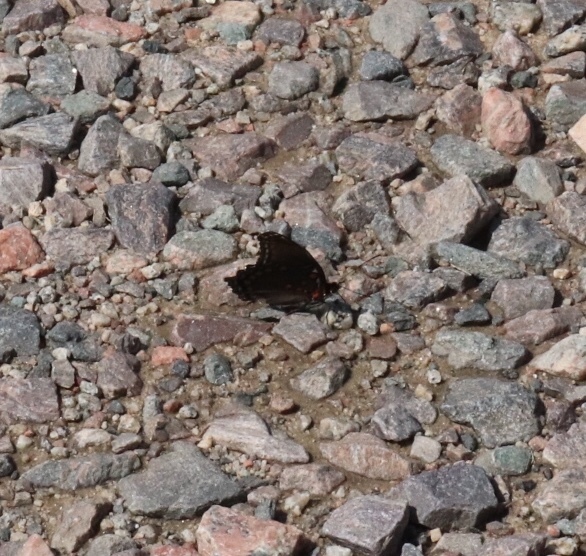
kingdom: Animalia
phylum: Arthropoda
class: Insecta
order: Lepidoptera
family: Nymphalidae
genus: Limenitis
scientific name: Limenitis astyanax
